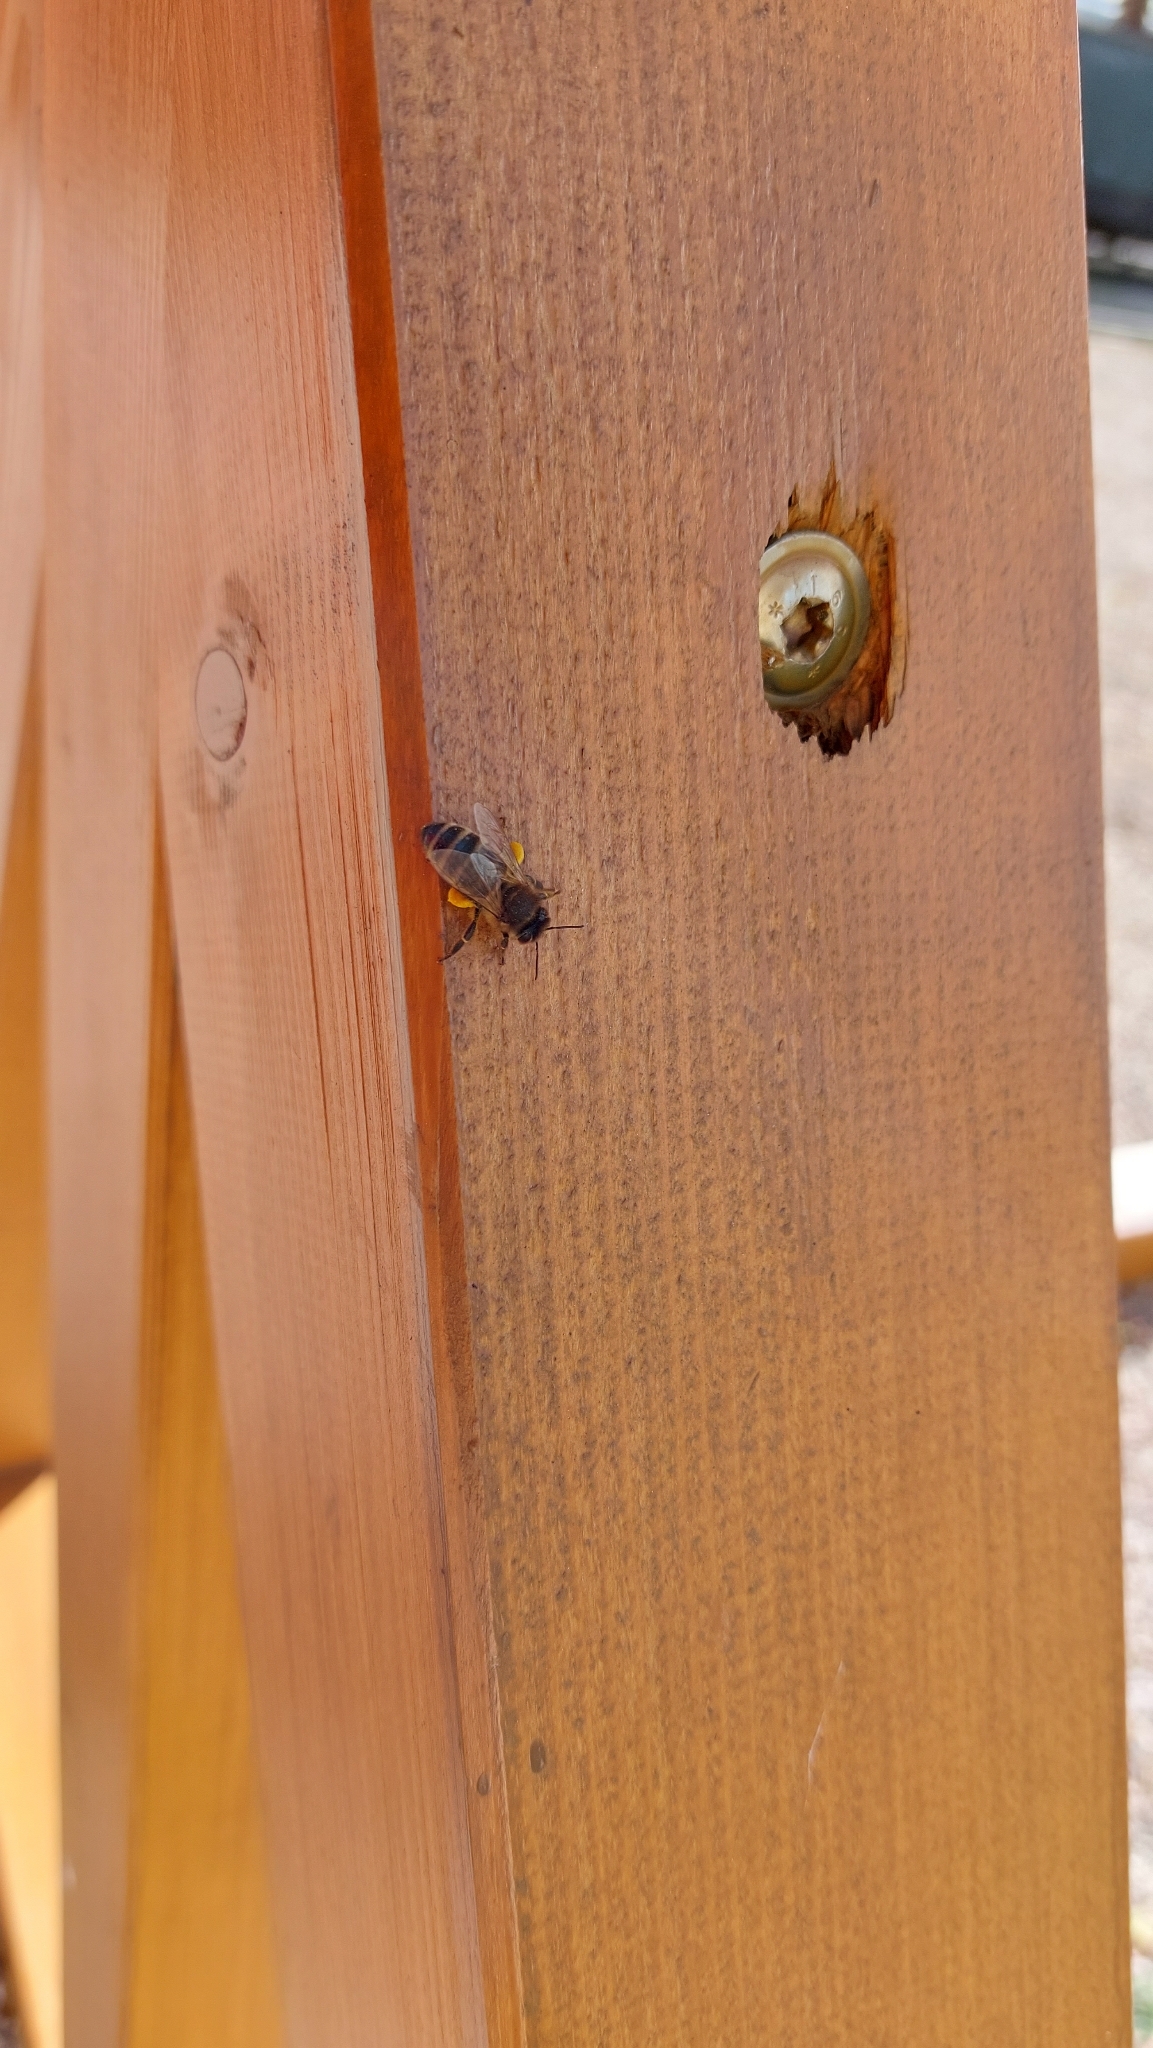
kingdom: Animalia
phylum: Arthropoda
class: Insecta
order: Hymenoptera
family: Apidae
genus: Apis
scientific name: Apis mellifera
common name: Honey bee
